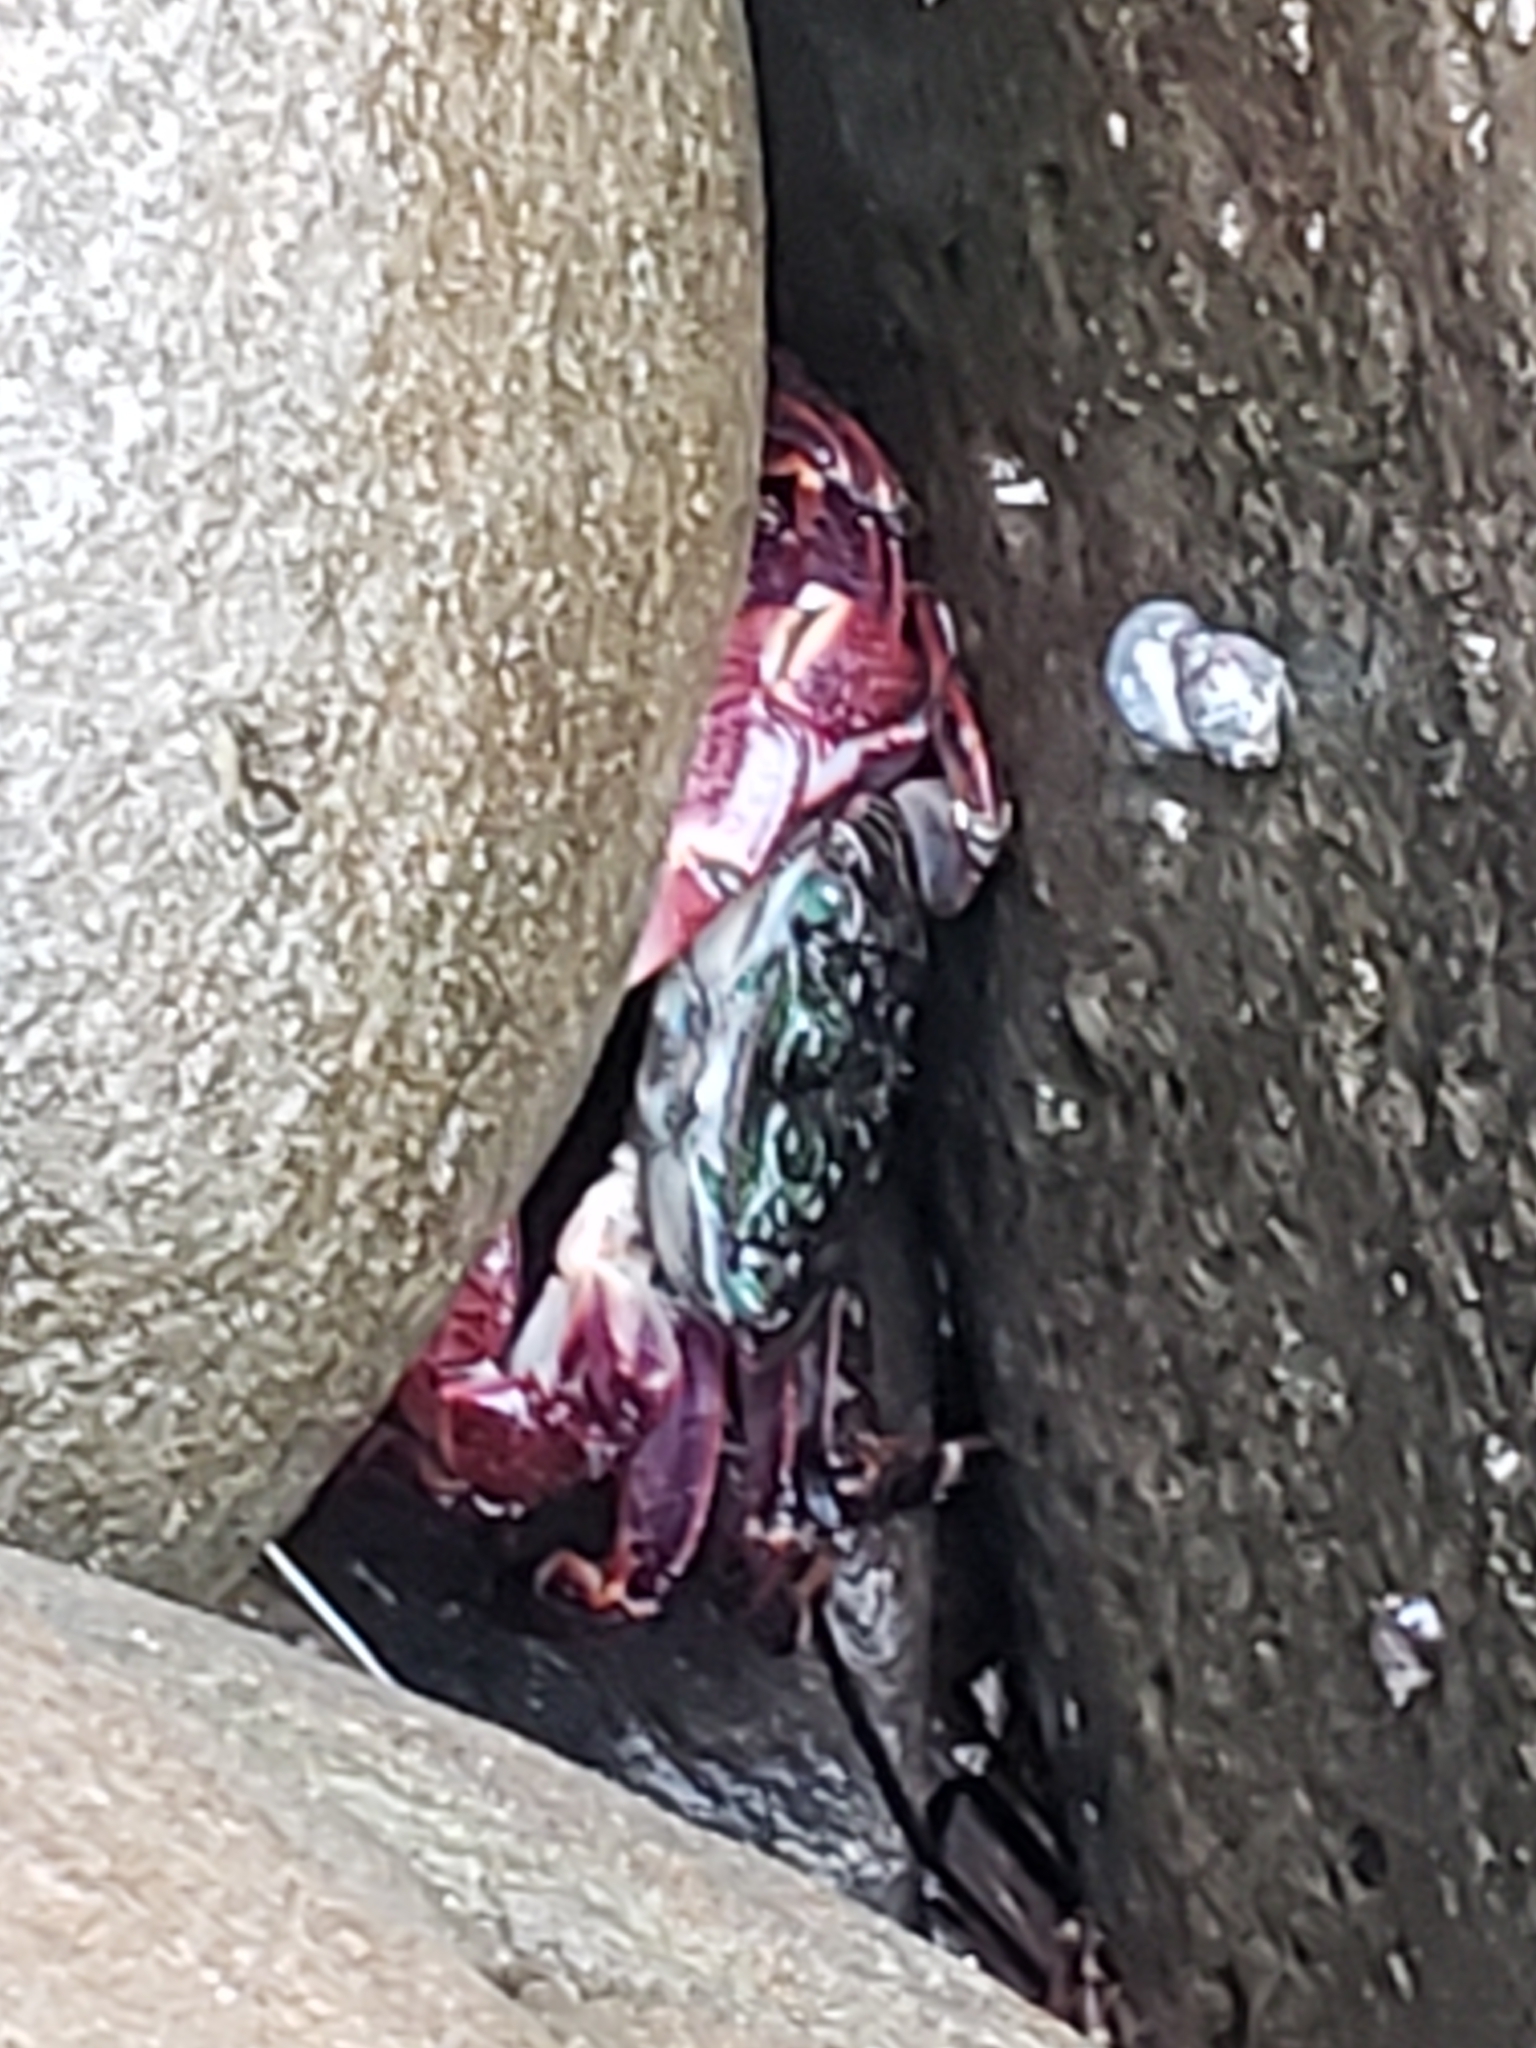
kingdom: Animalia
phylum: Arthropoda
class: Malacostraca
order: Decapoda
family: Grapsidae
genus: Pachygrapsus
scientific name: Pachygrapsus crassipes
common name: Striped shore crab
